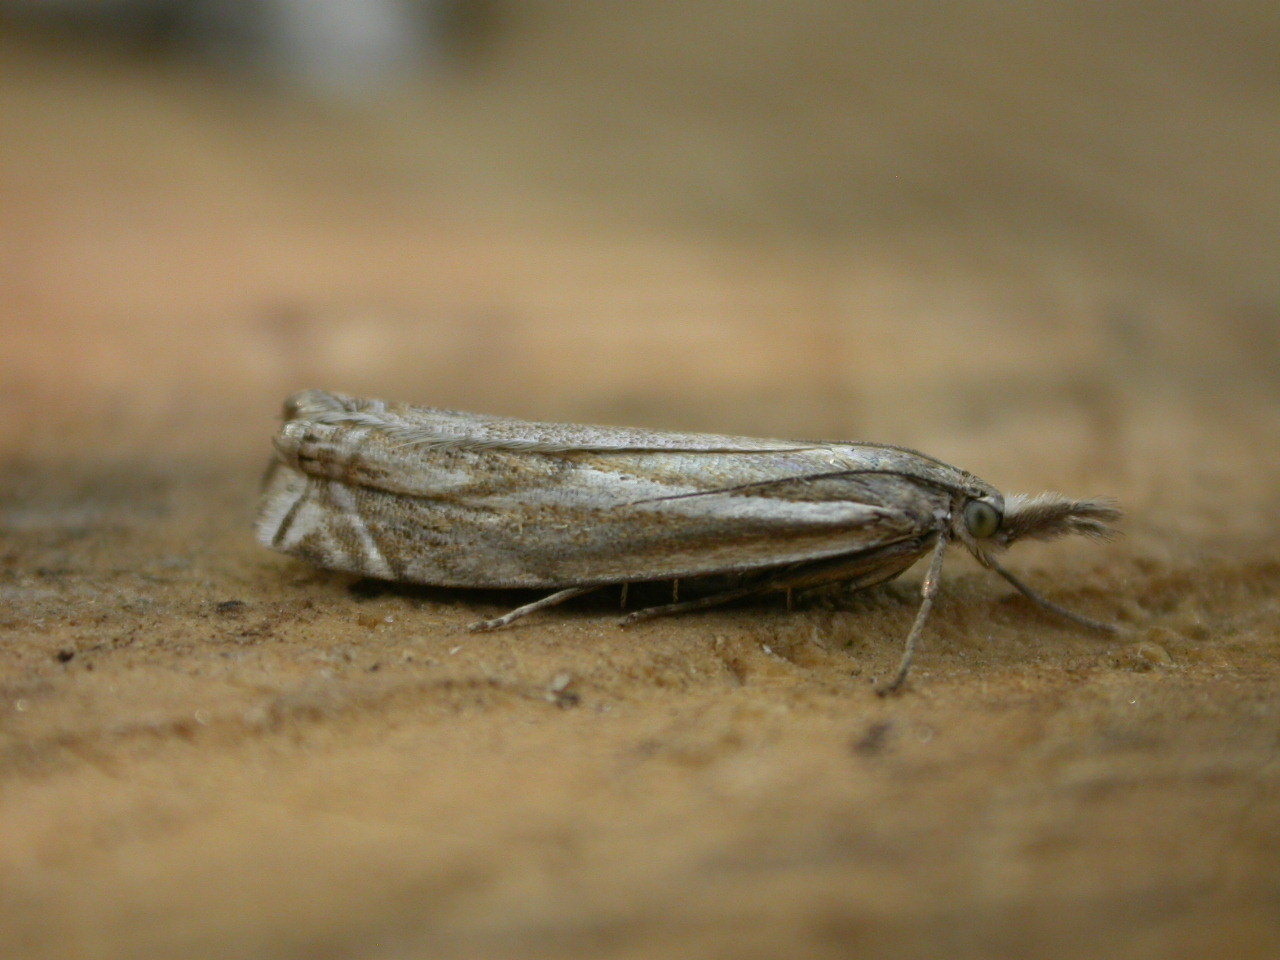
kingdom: Animalia
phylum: Arthropoda
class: Insecta
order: Lepidoptera
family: Crambidae
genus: Crambus
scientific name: Crambus nemorella
